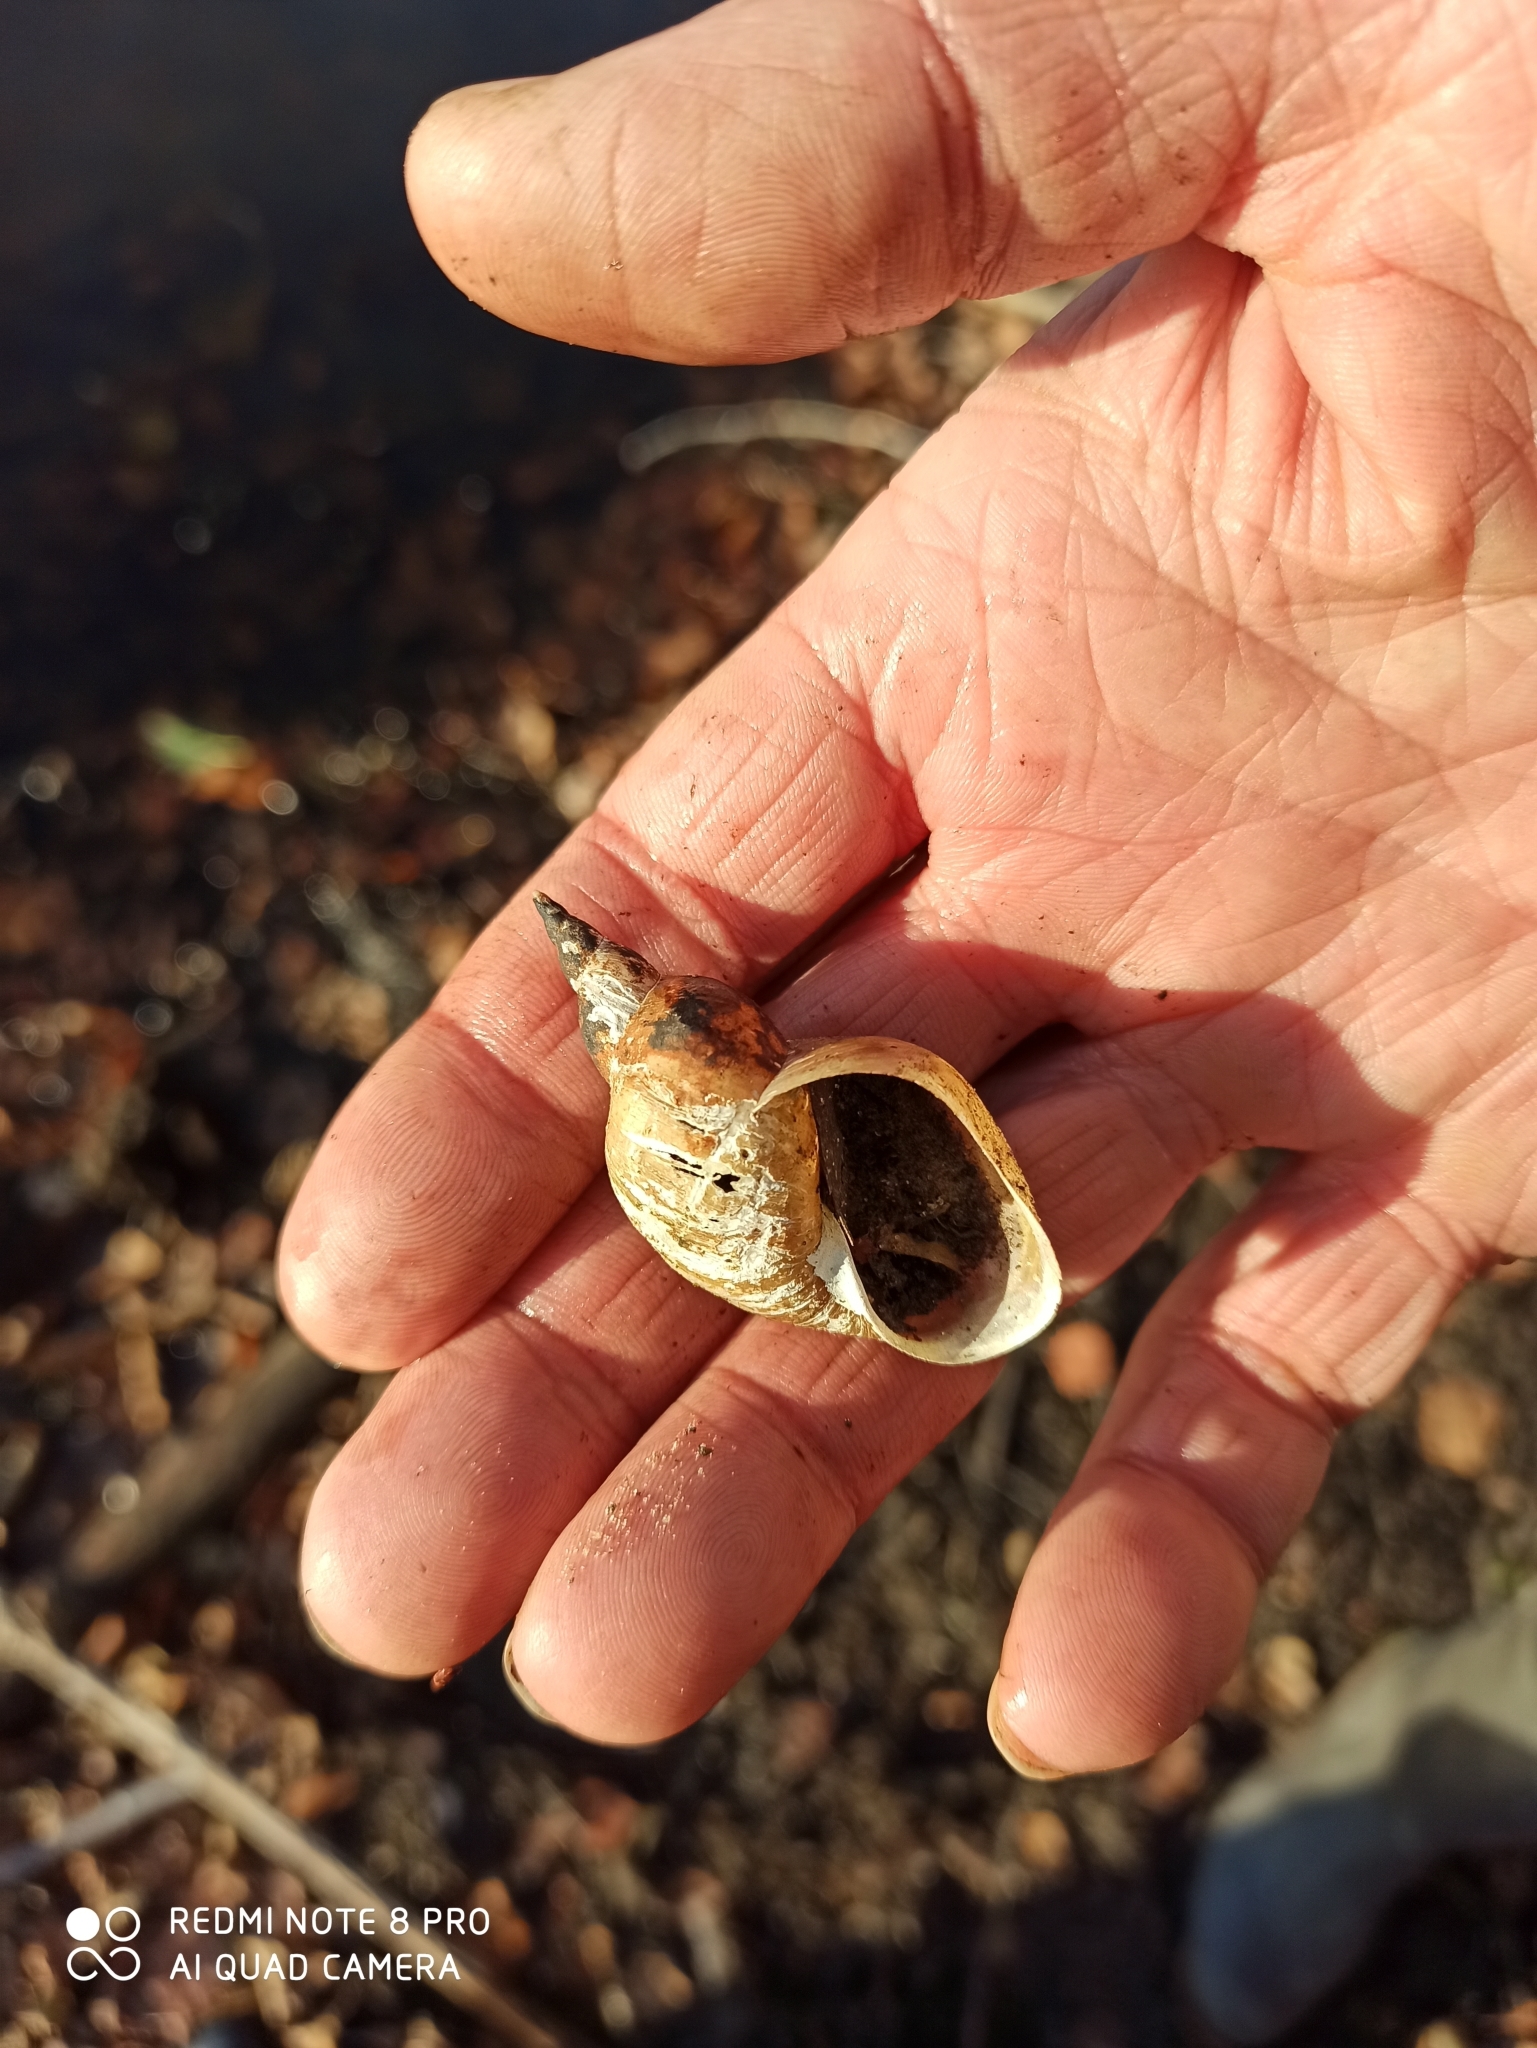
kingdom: Animalia
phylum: Mollusca
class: Gastropoda
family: Lymnaeidae
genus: Lymnaea
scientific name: Lymnaea stagnalis
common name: Great pond snail
